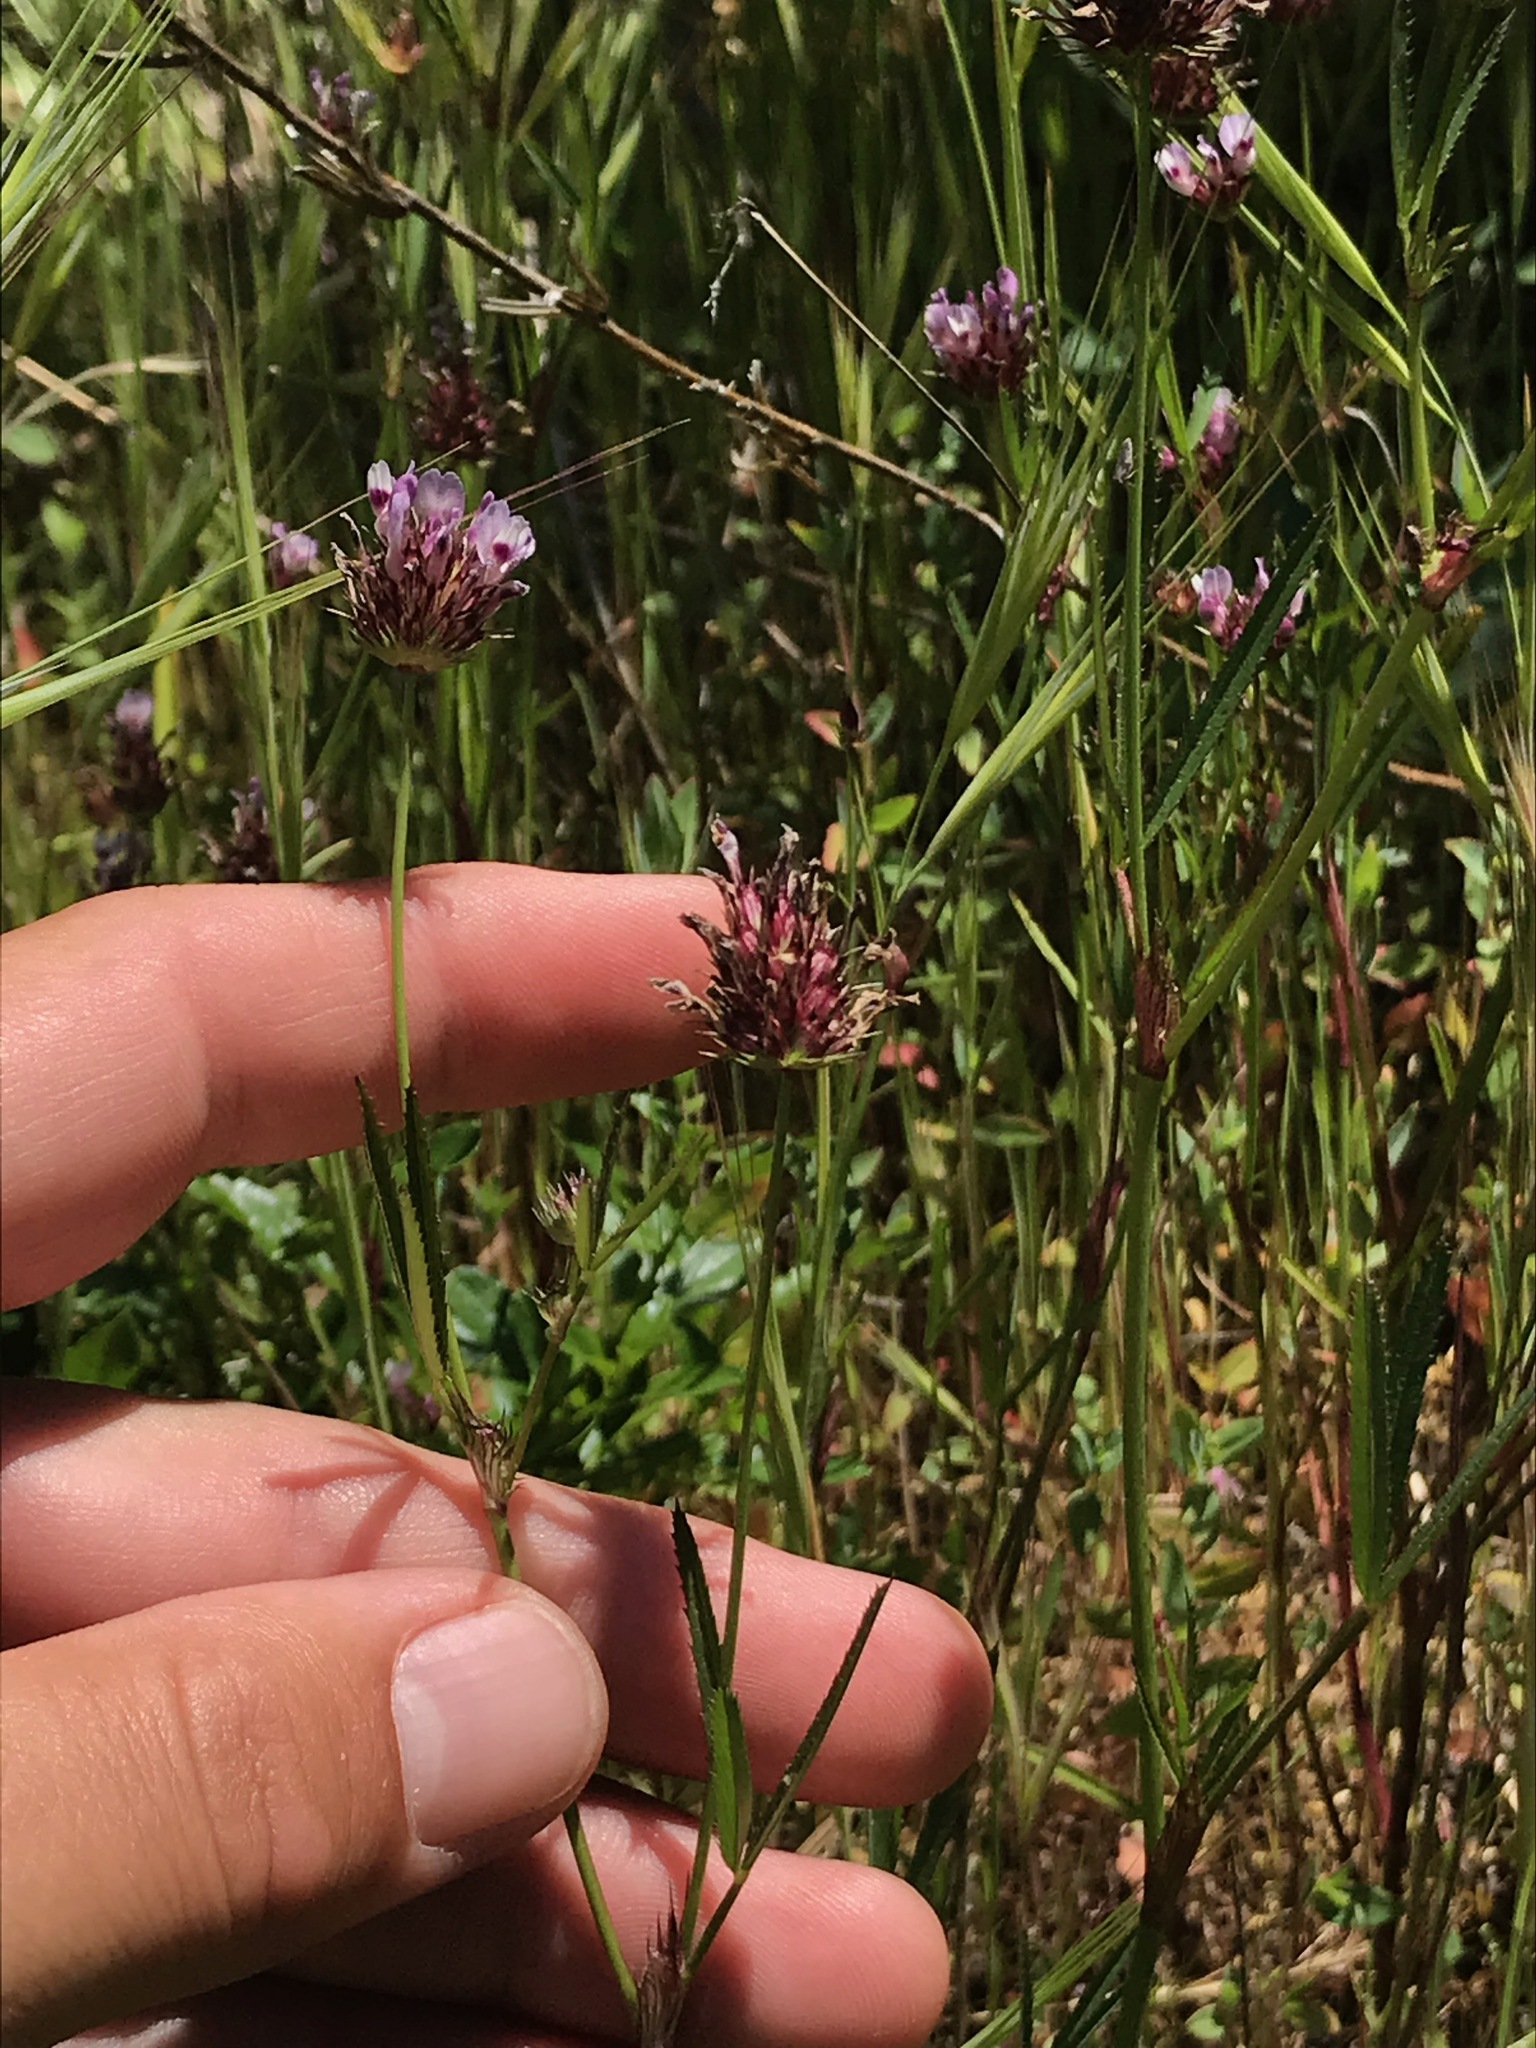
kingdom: Plantae
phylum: Tracheophyta
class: Magnoliopsida
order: Fabales
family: Fabaceae
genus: Trifolium
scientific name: Trifolium willdenovii
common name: Tomcat clover
